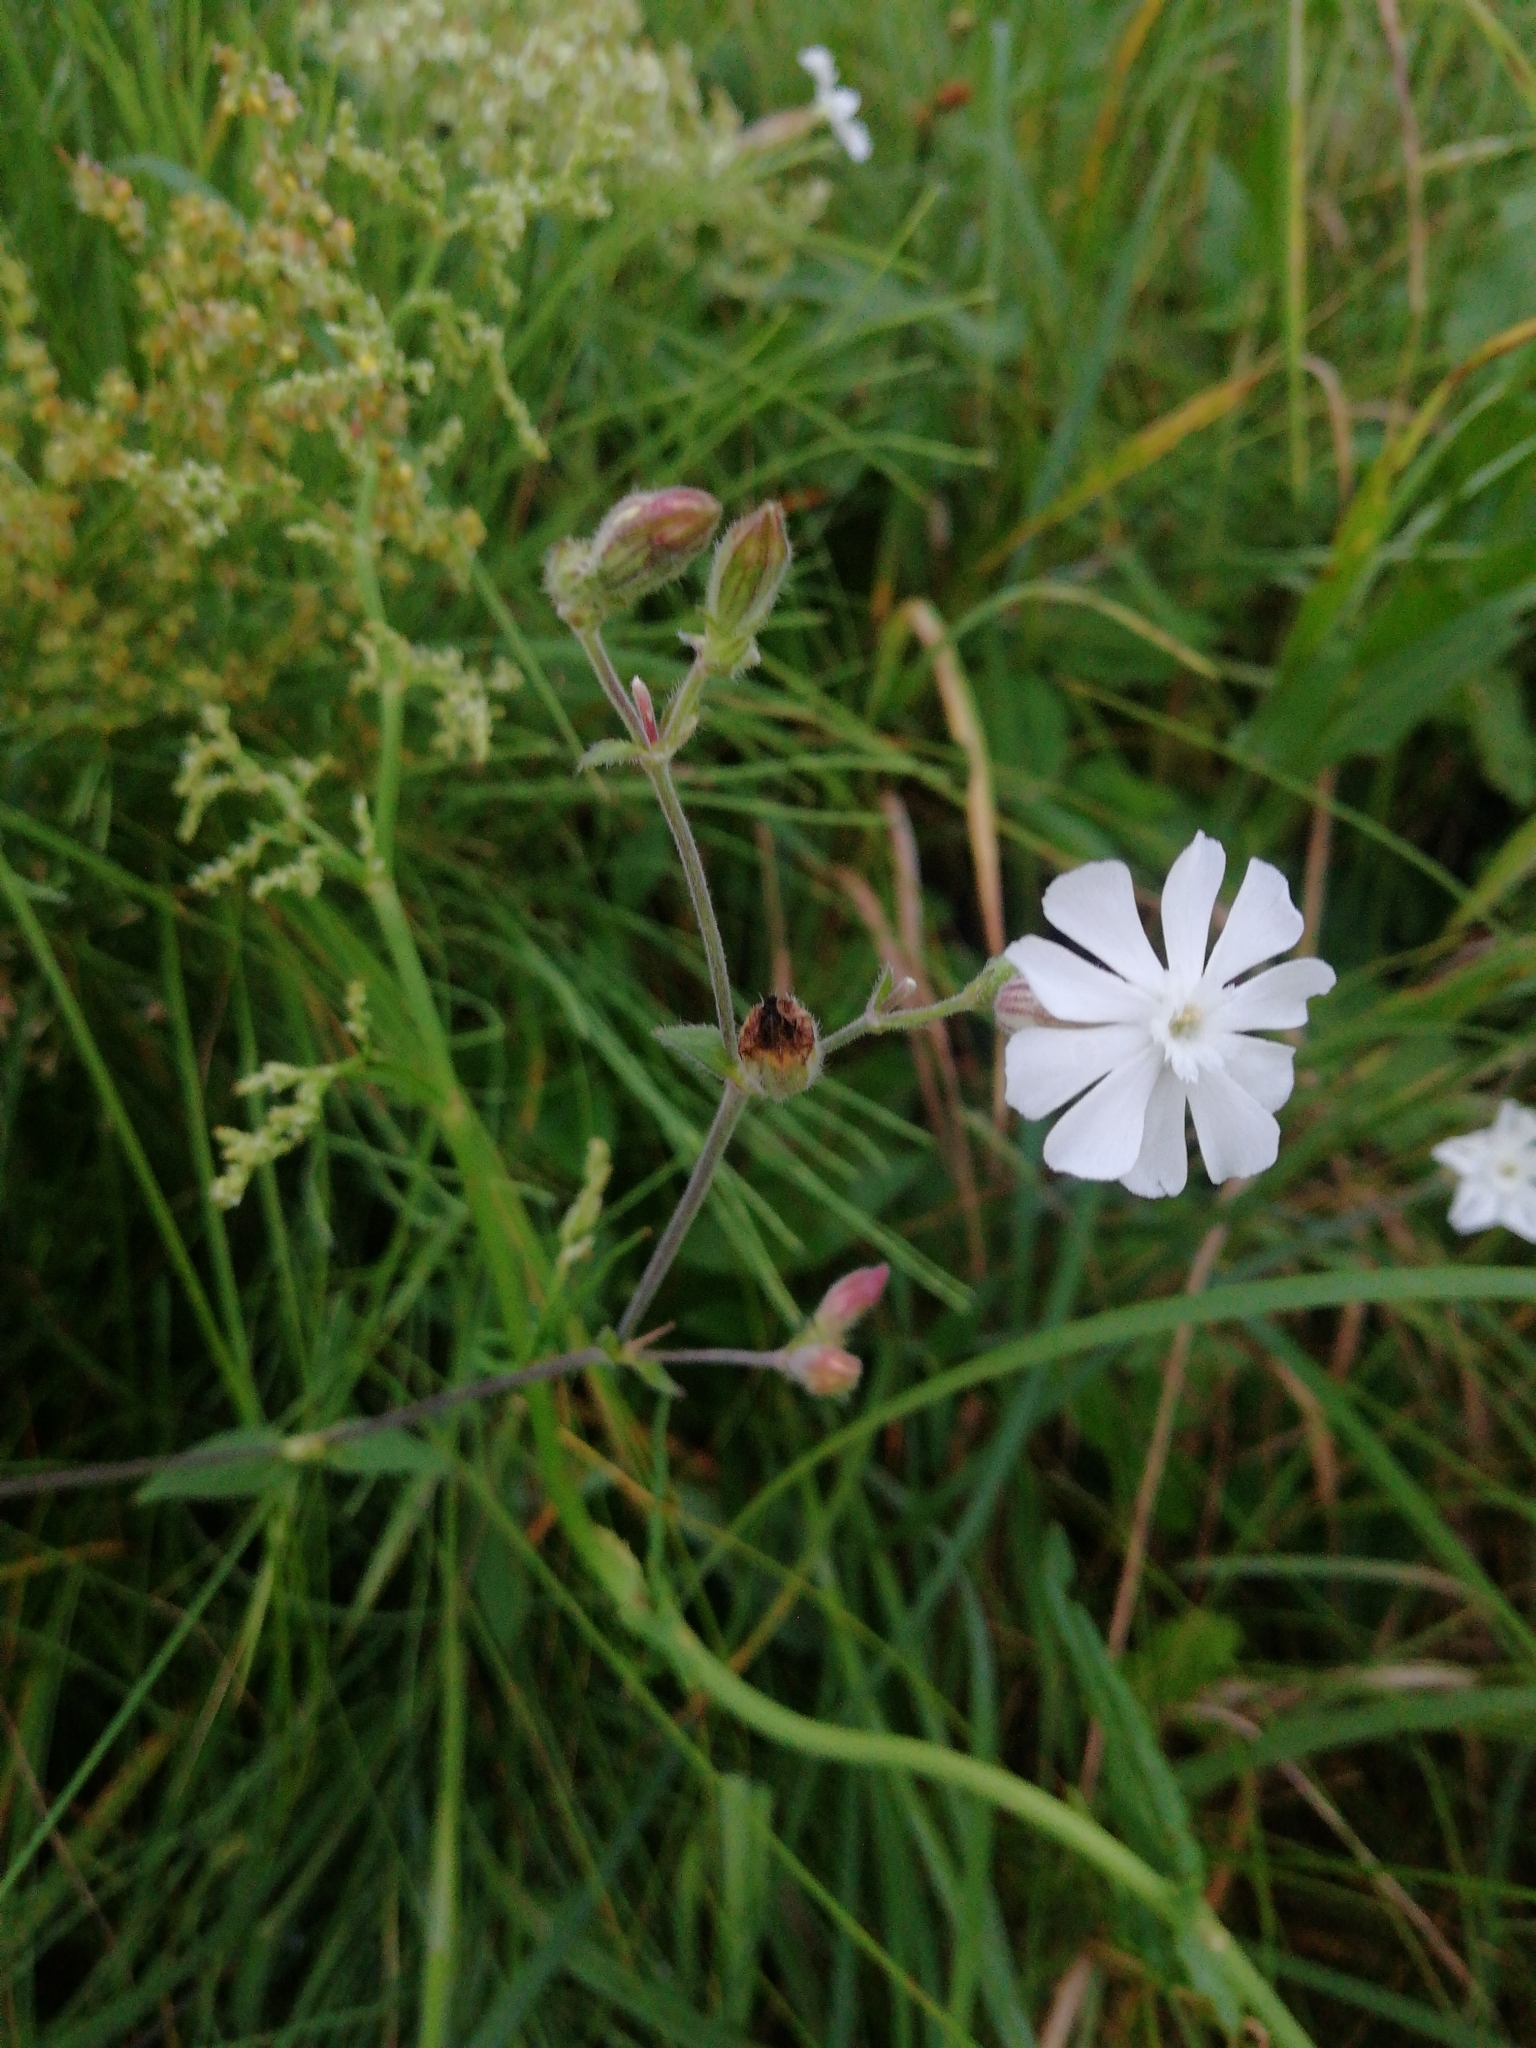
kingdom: Plantae
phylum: Tracheophyta
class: Magnoliopsida
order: Caryophyllales
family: Caryophyllaceae
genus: Silene
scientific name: Silene latifolia
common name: White campion
